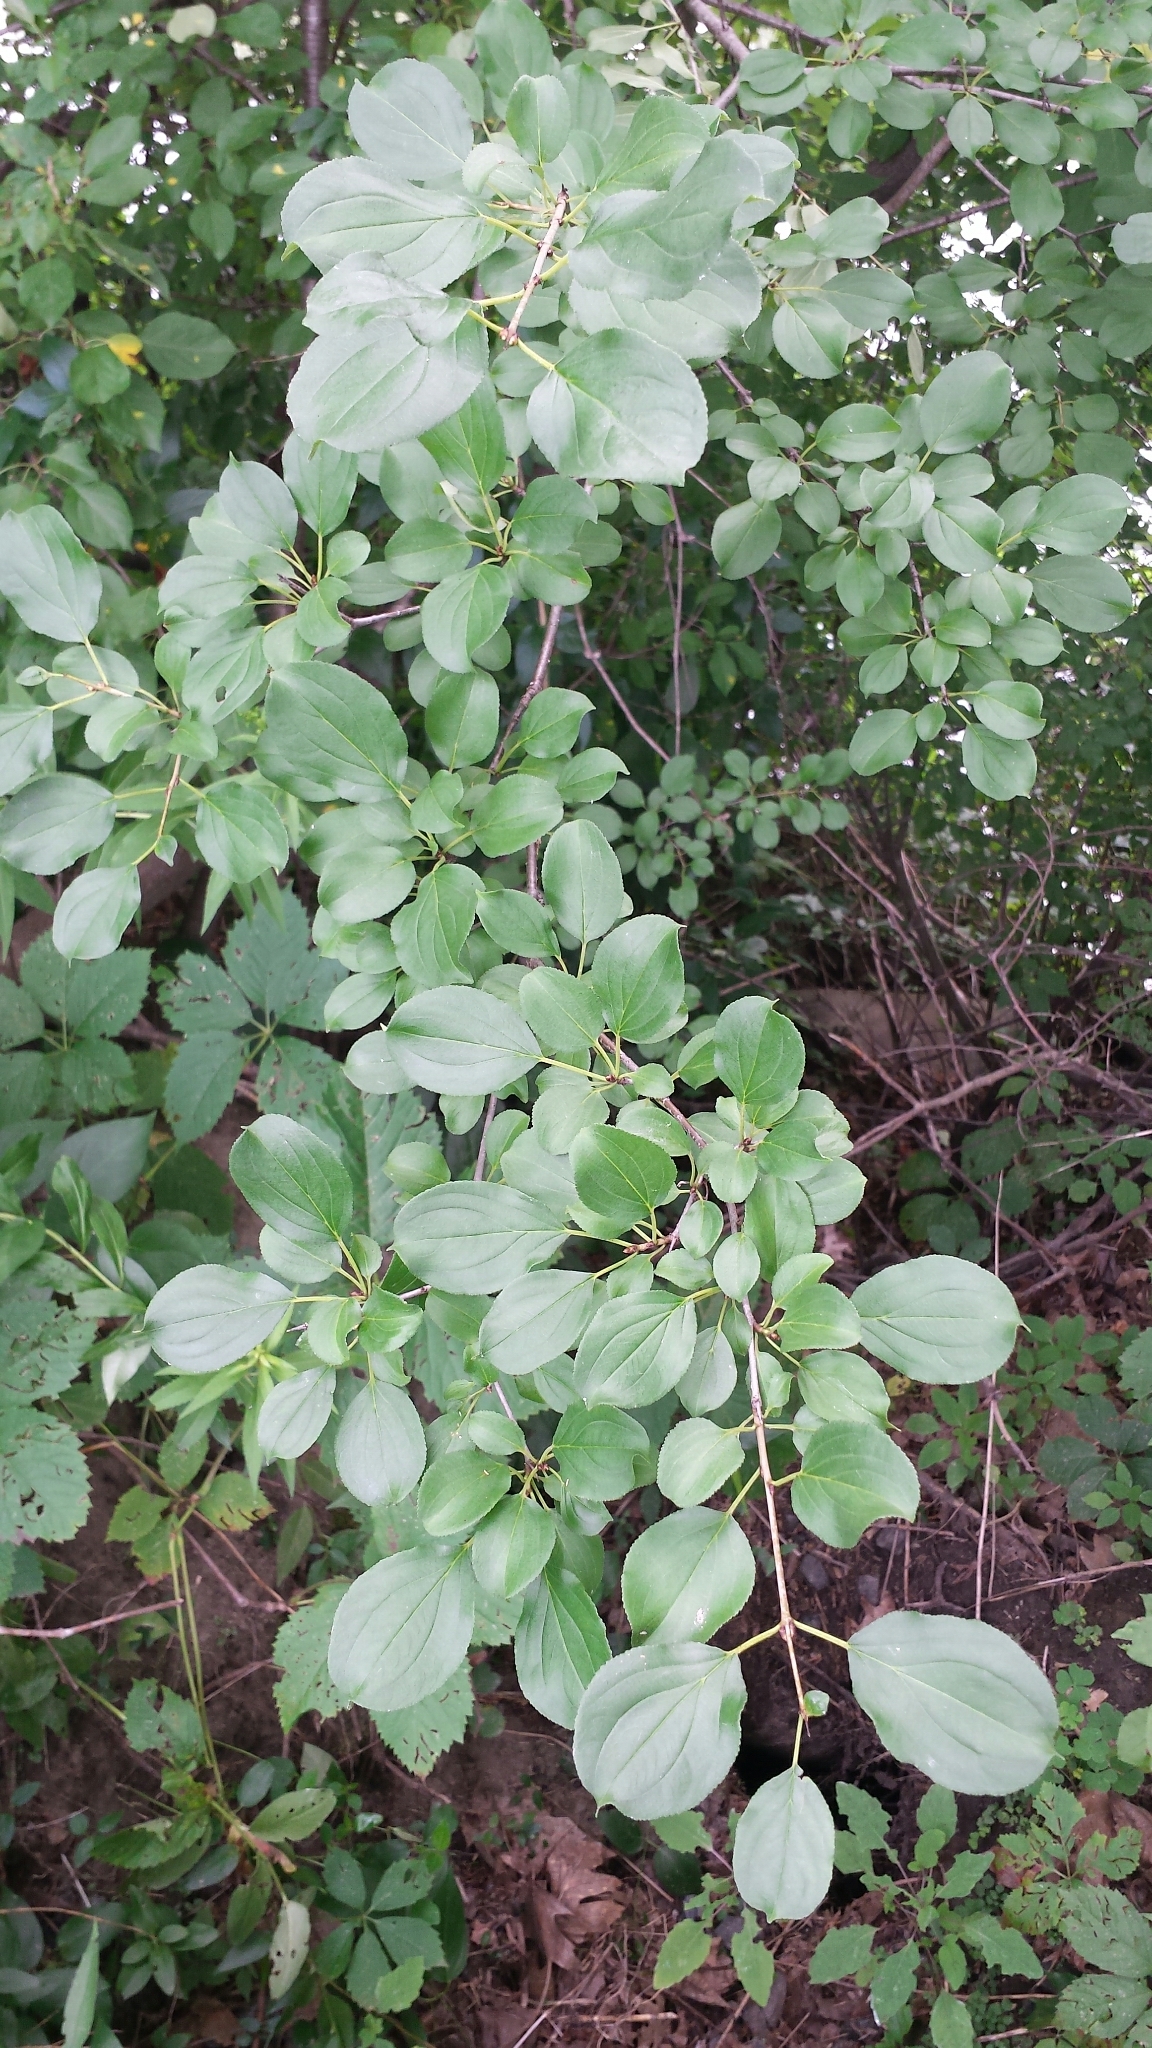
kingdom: Plantae
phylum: Tracheophyta
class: Magnoliopsida
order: Rosales
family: Rhamnaceae
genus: Rhamnus
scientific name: Rhamnus cathartica
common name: Common buckthorn
